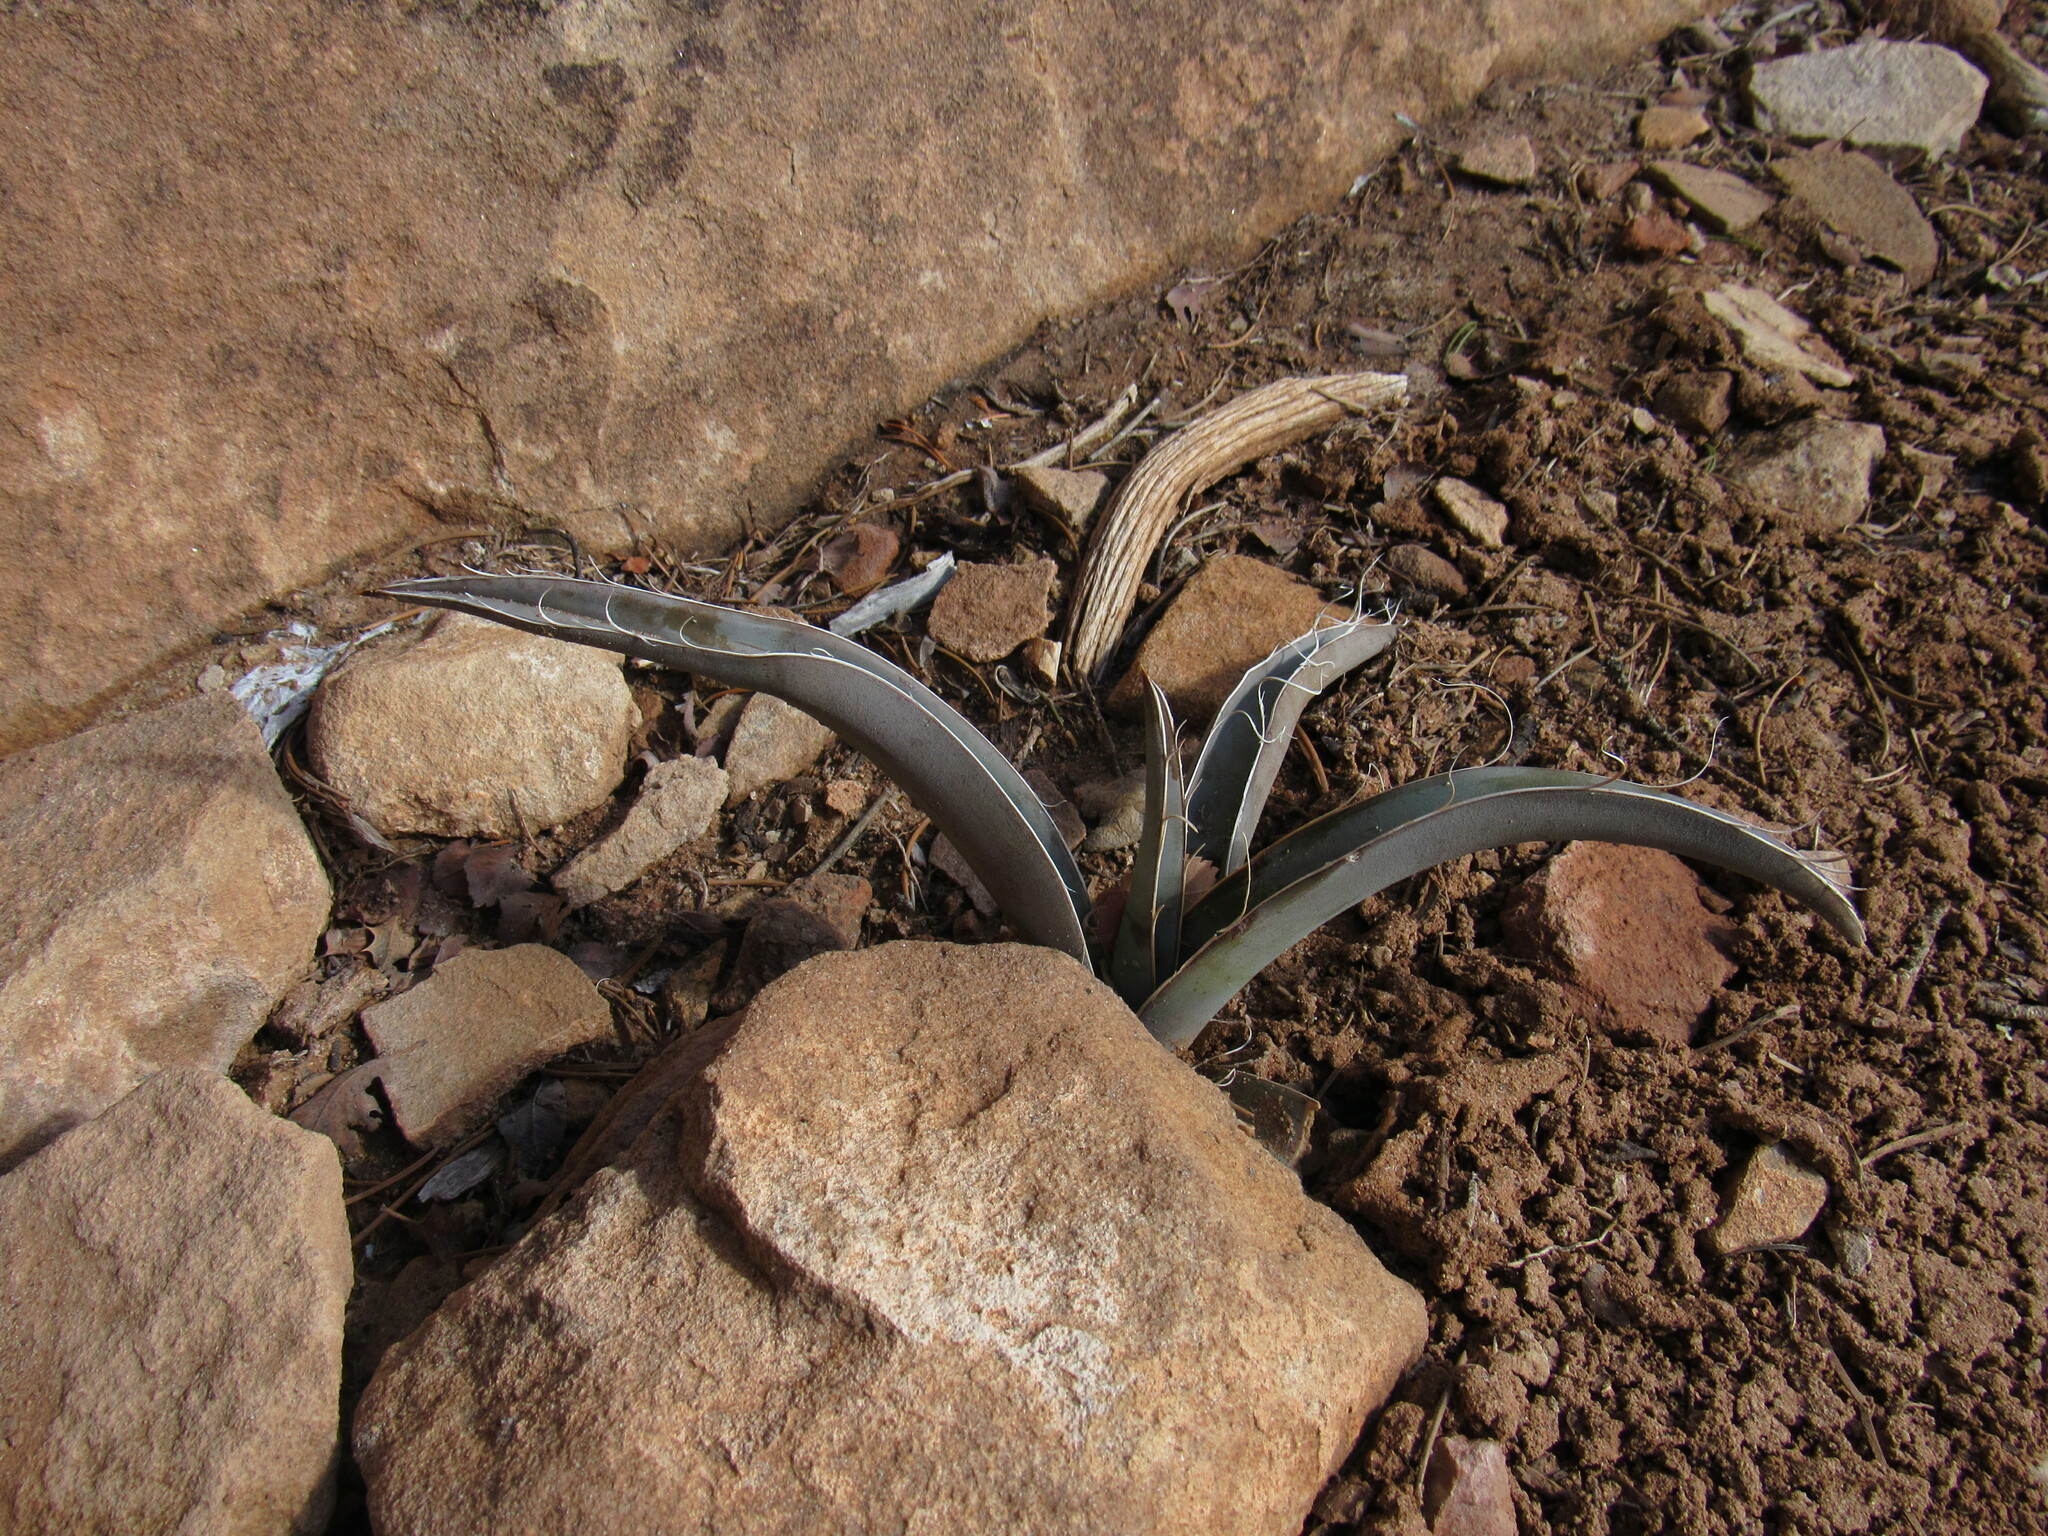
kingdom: Plantae
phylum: Tracheophyta
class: Liliopsida
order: Asparagales
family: Asparagaceae
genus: Yucca
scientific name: Yucca baccata
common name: Banana yucca
